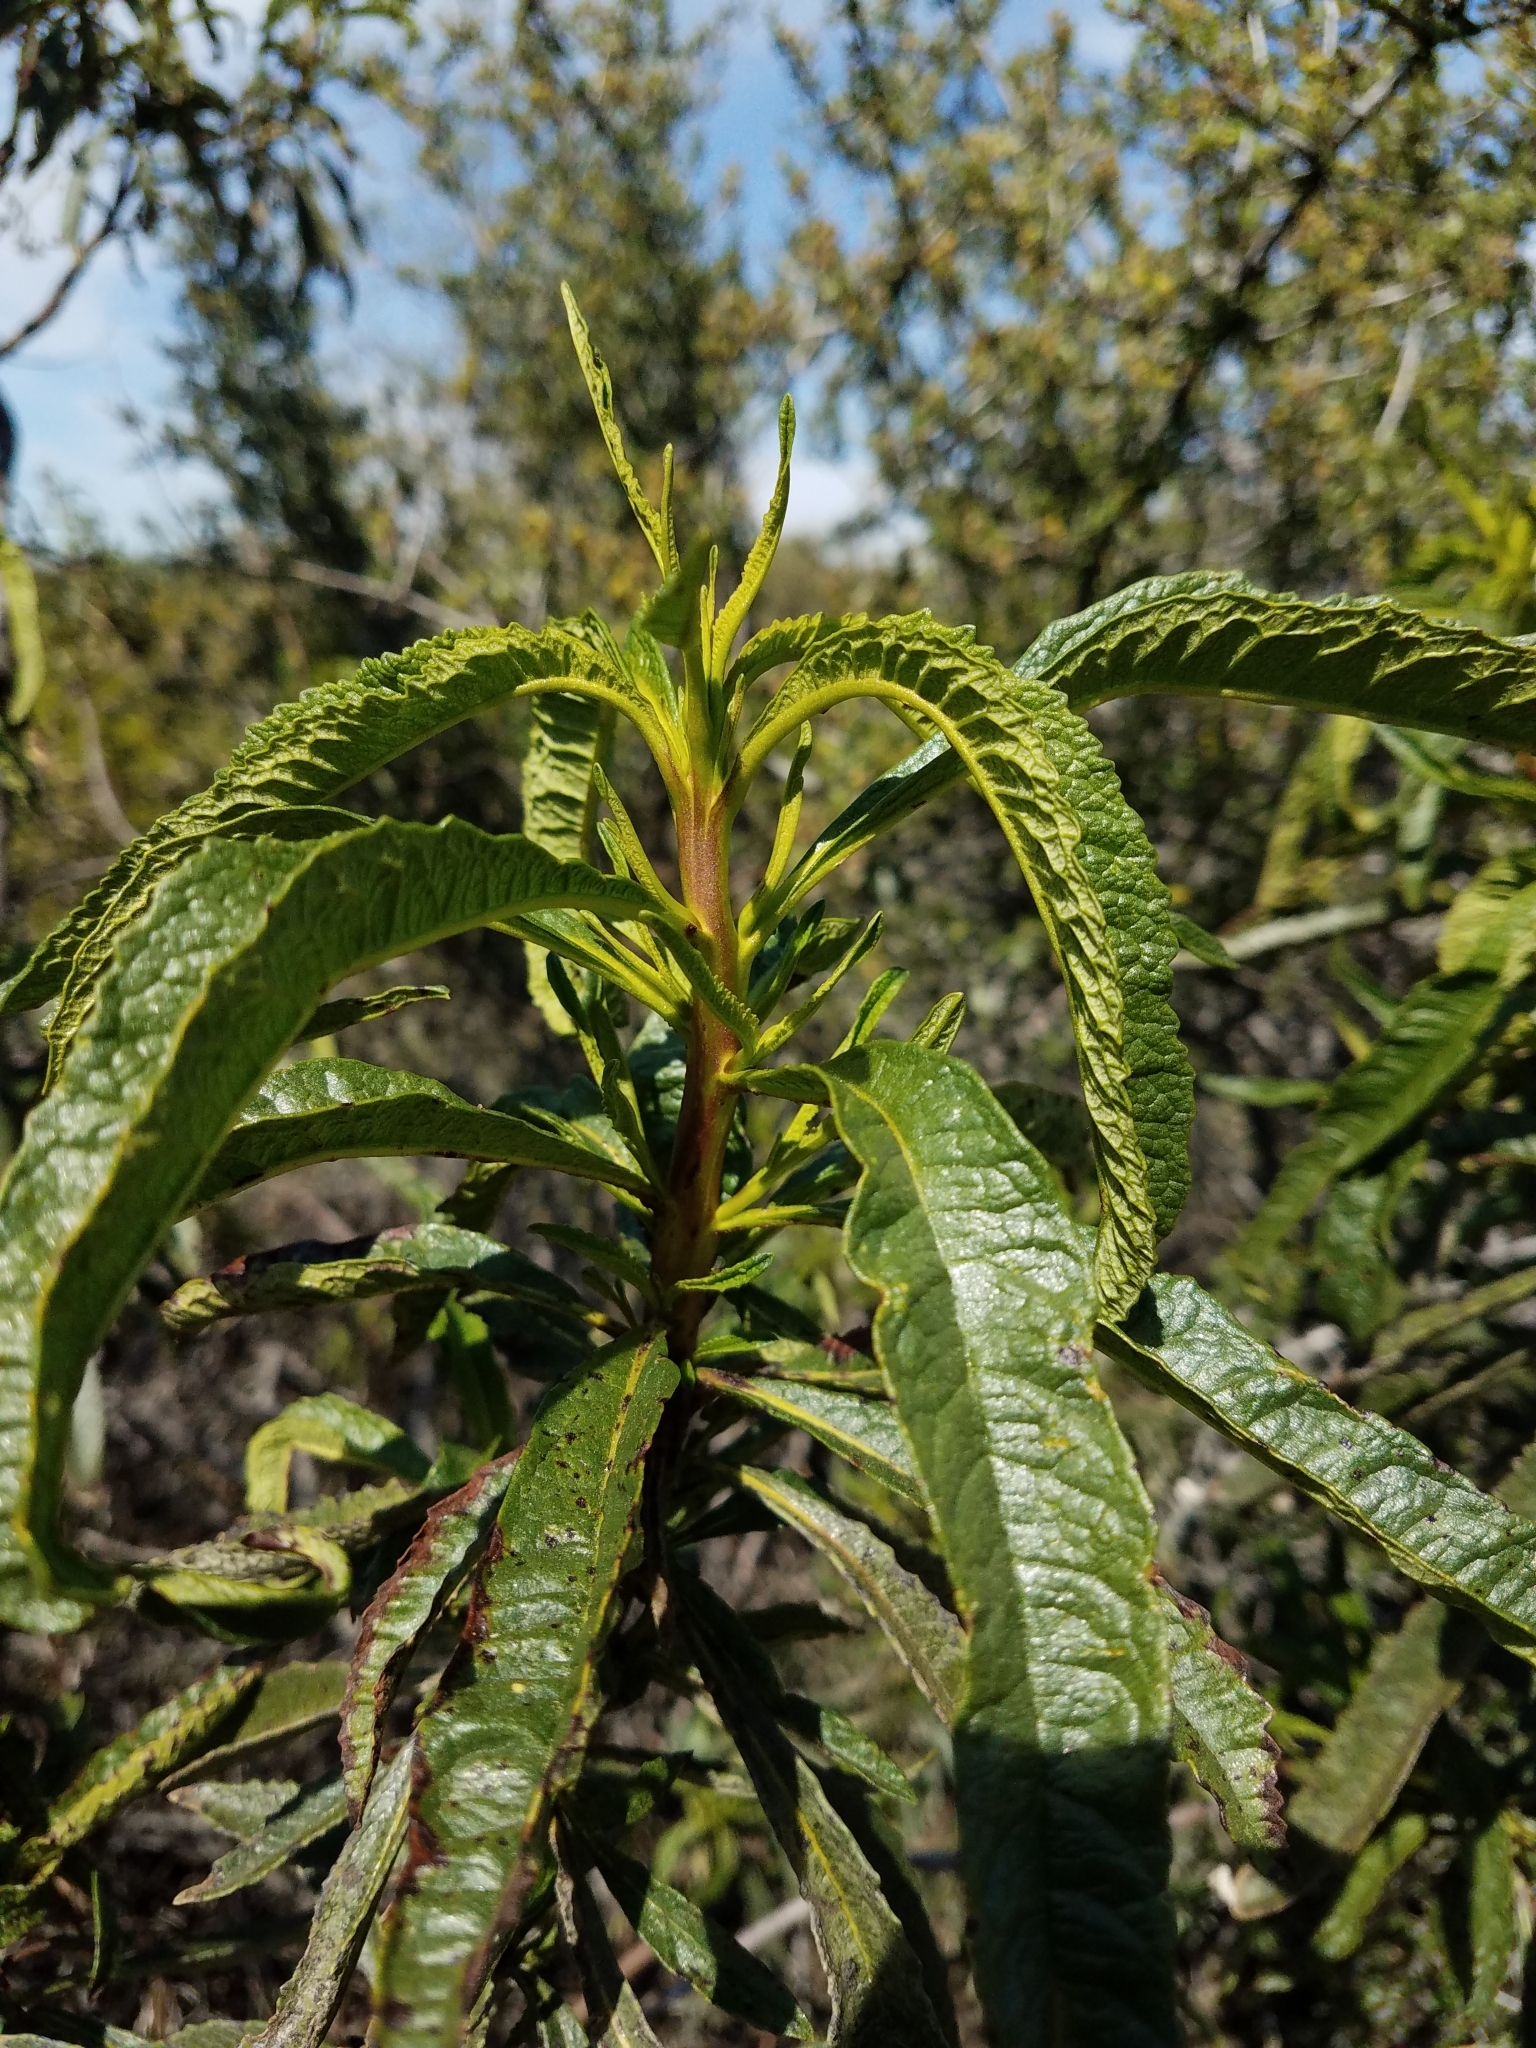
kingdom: Plantae
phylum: Tracheophyta
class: Magnoliopsida
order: Boraginales
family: Namaceae
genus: Eriodictyon
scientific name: Eriodictyon californicum
